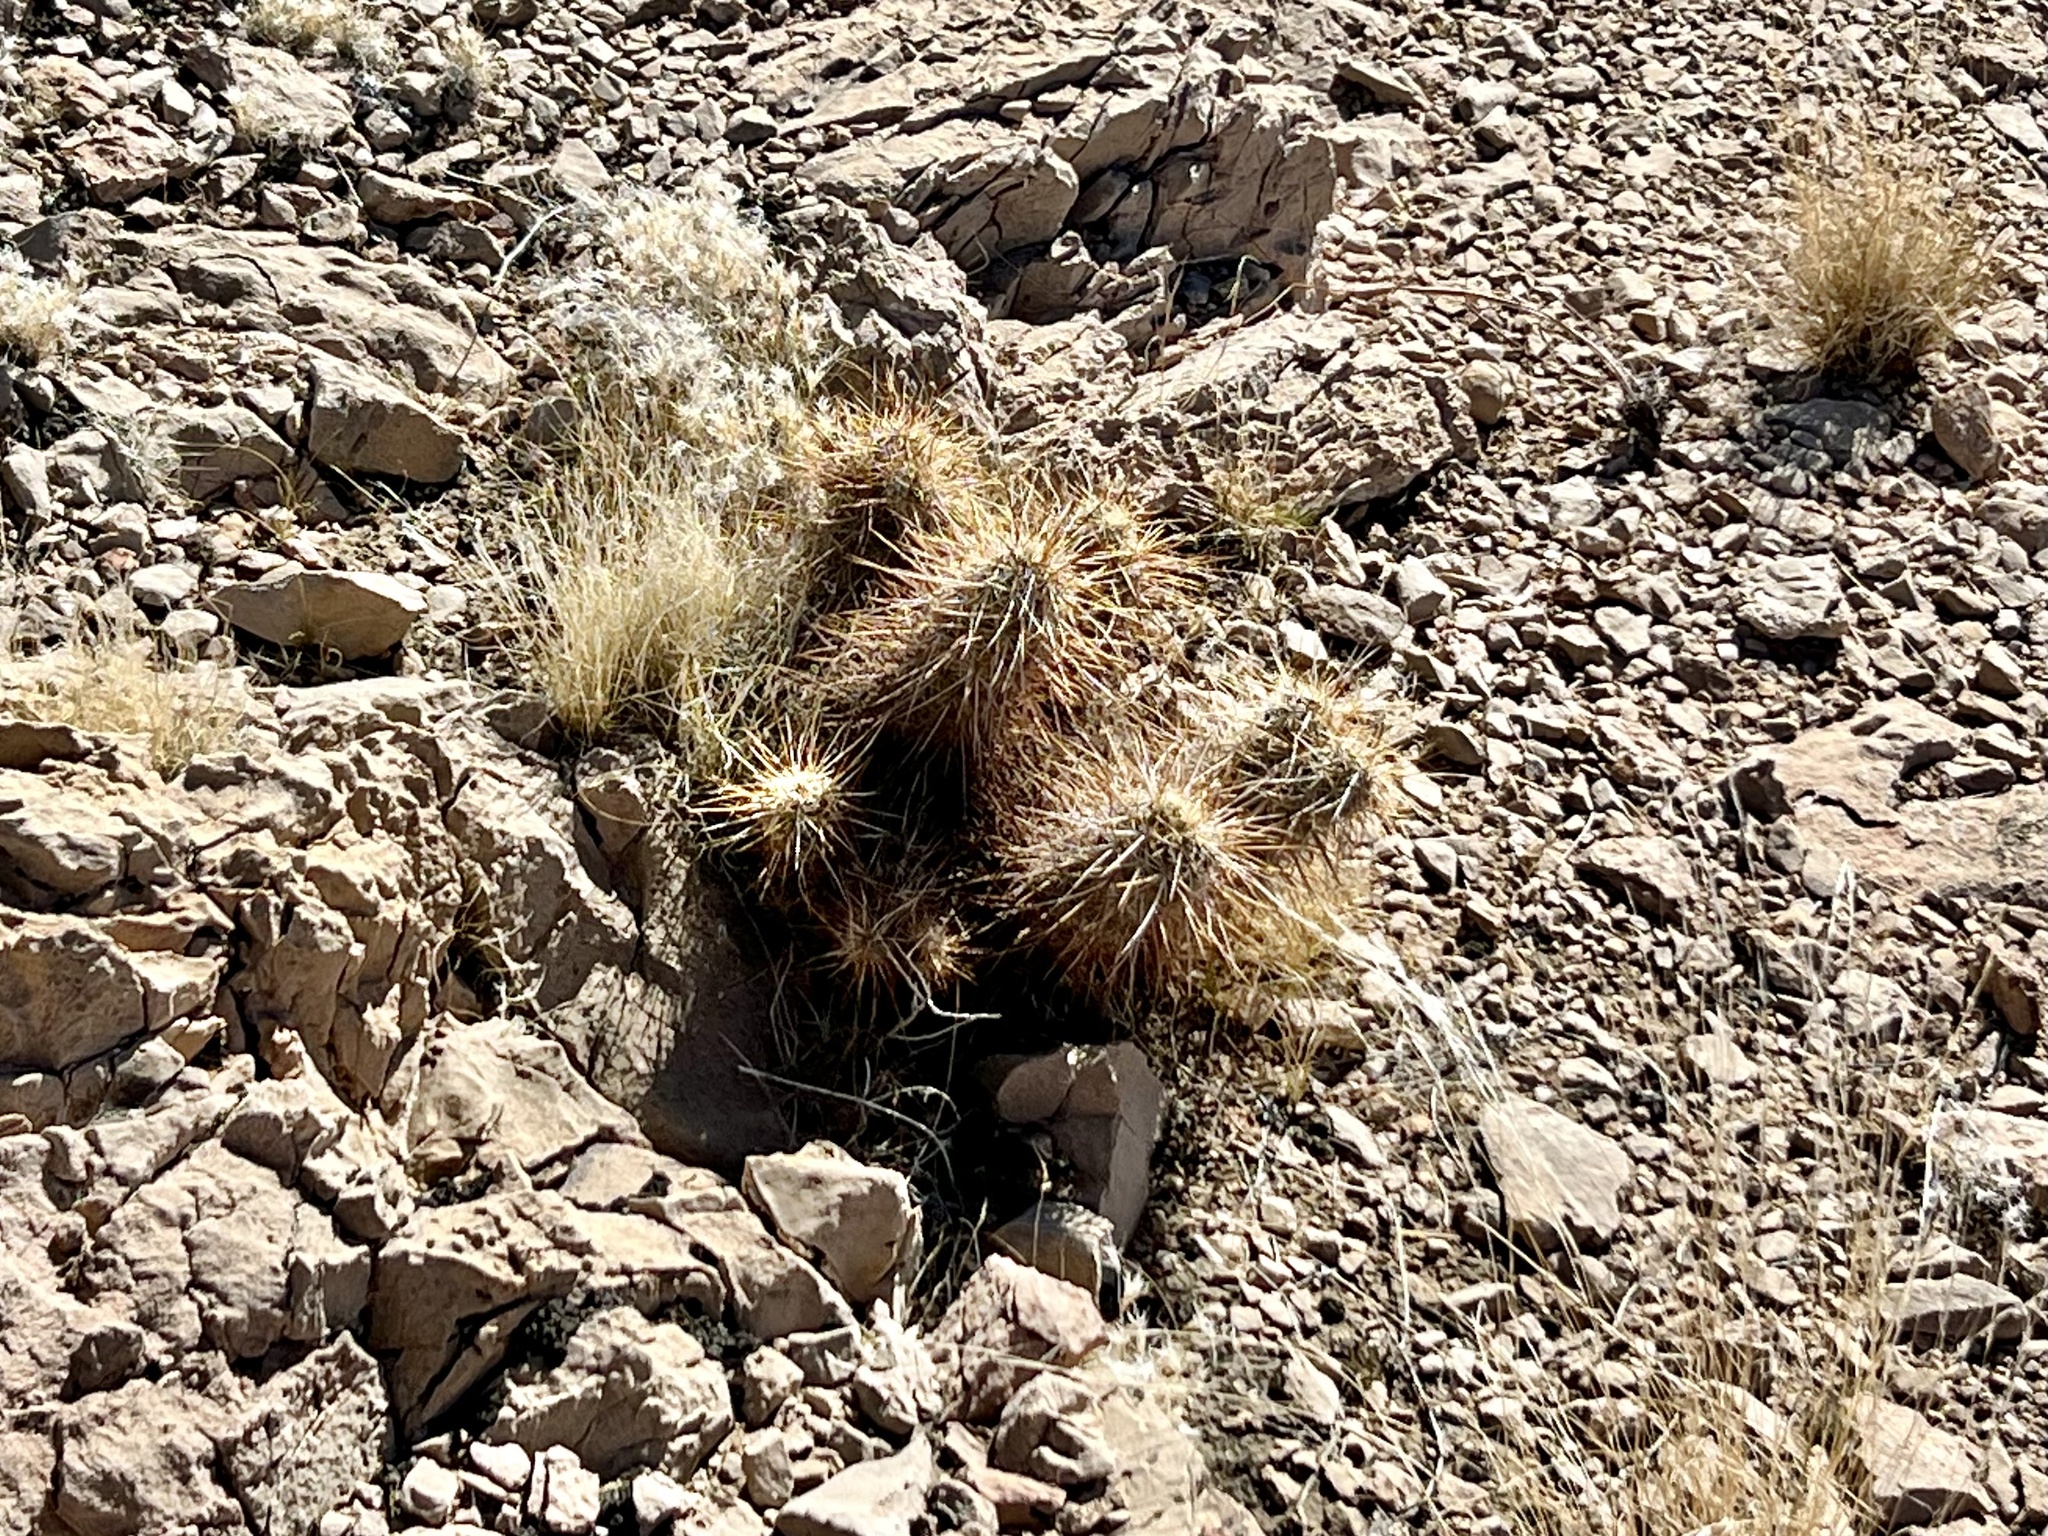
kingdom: Plantae
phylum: Tracheophyta
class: Magnoliopsida
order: Caryophyllales
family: Cactaceae
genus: Echinocereus
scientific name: Echinocereus engelmannii
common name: Engelmann's hedgehog cactus
